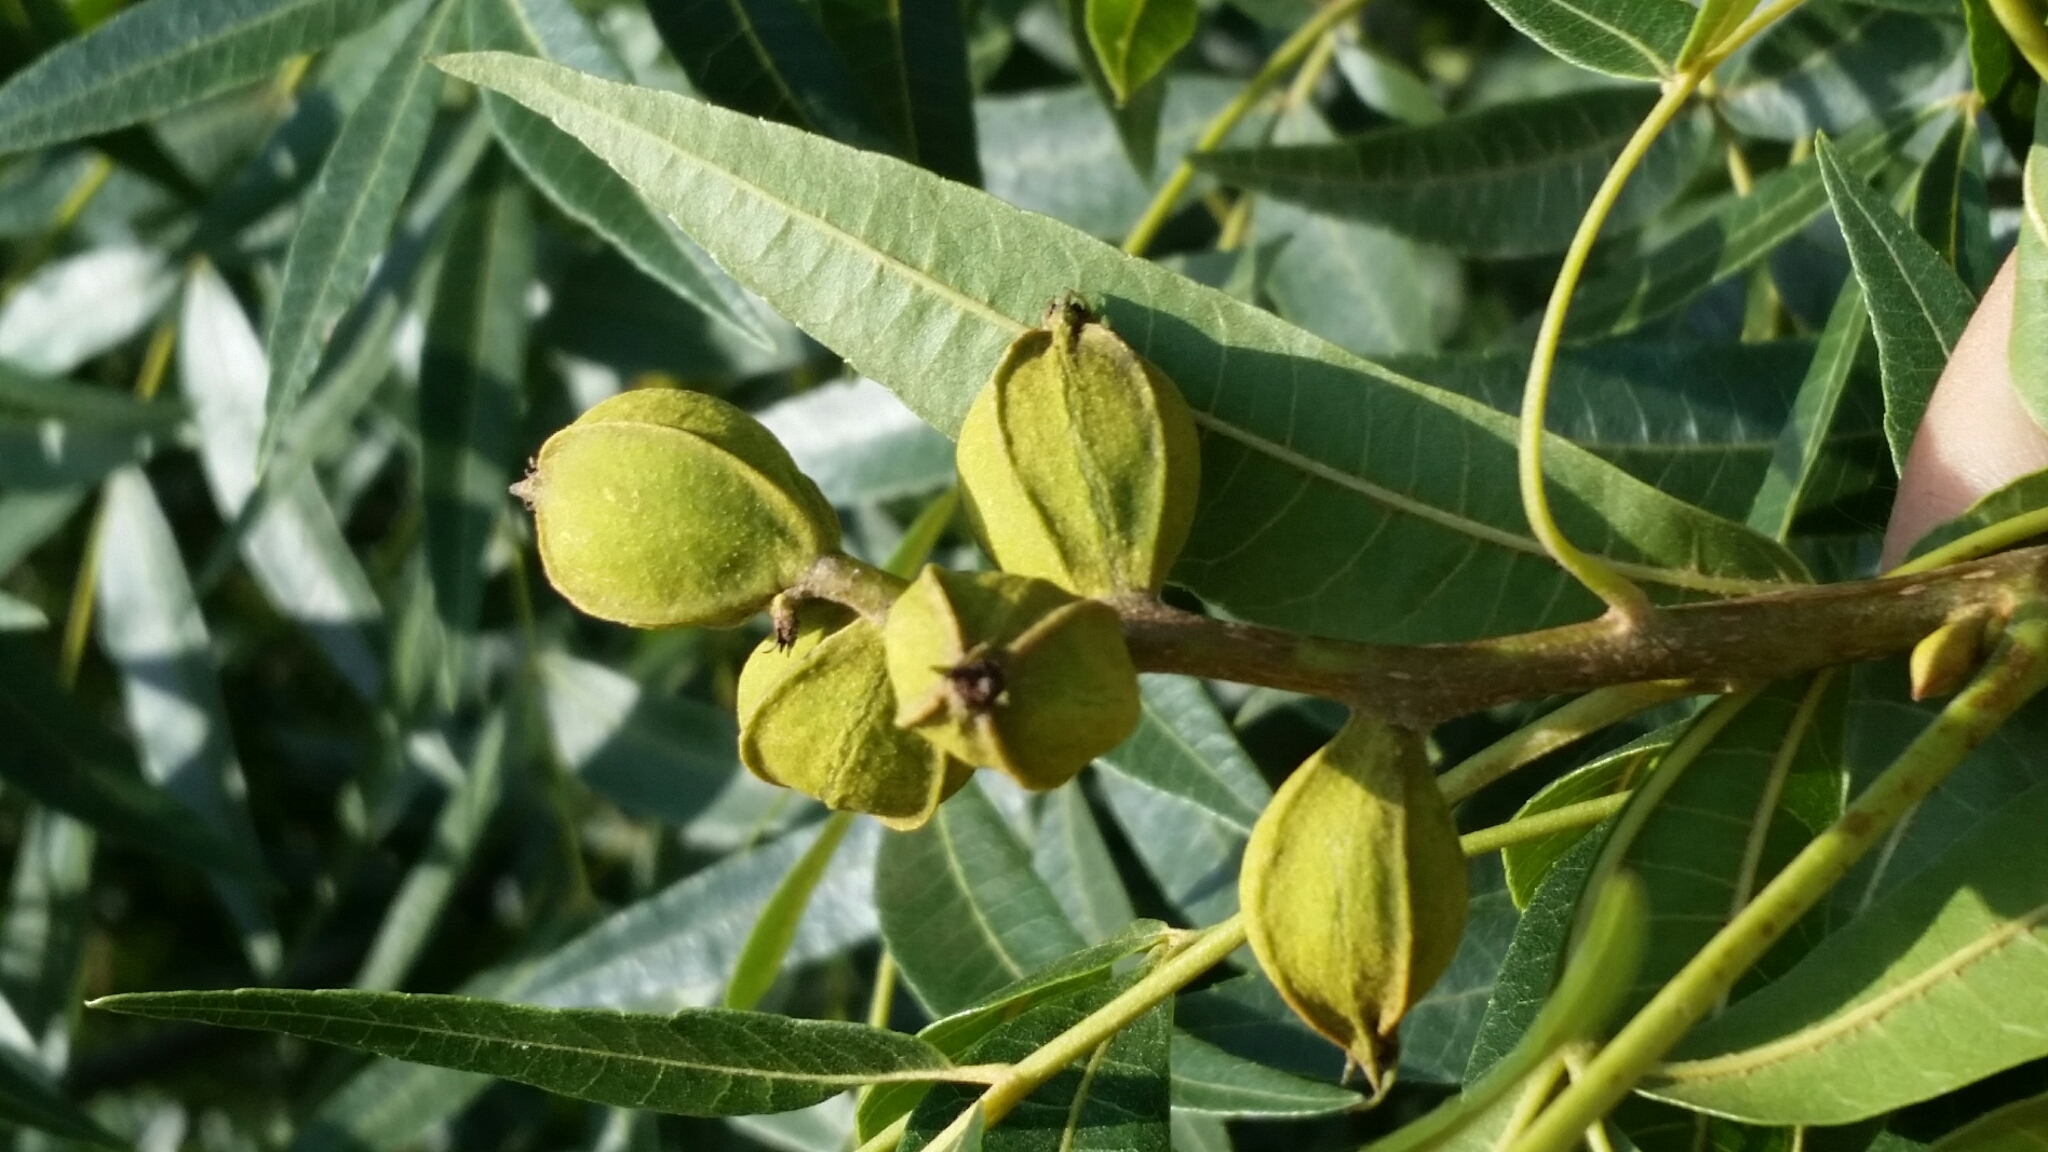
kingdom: Plantae
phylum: Tracheophyta
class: Magnoliopsida
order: Fagales
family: Juglandaceae
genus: Carya
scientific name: Carya aquatica
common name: Water hickory
